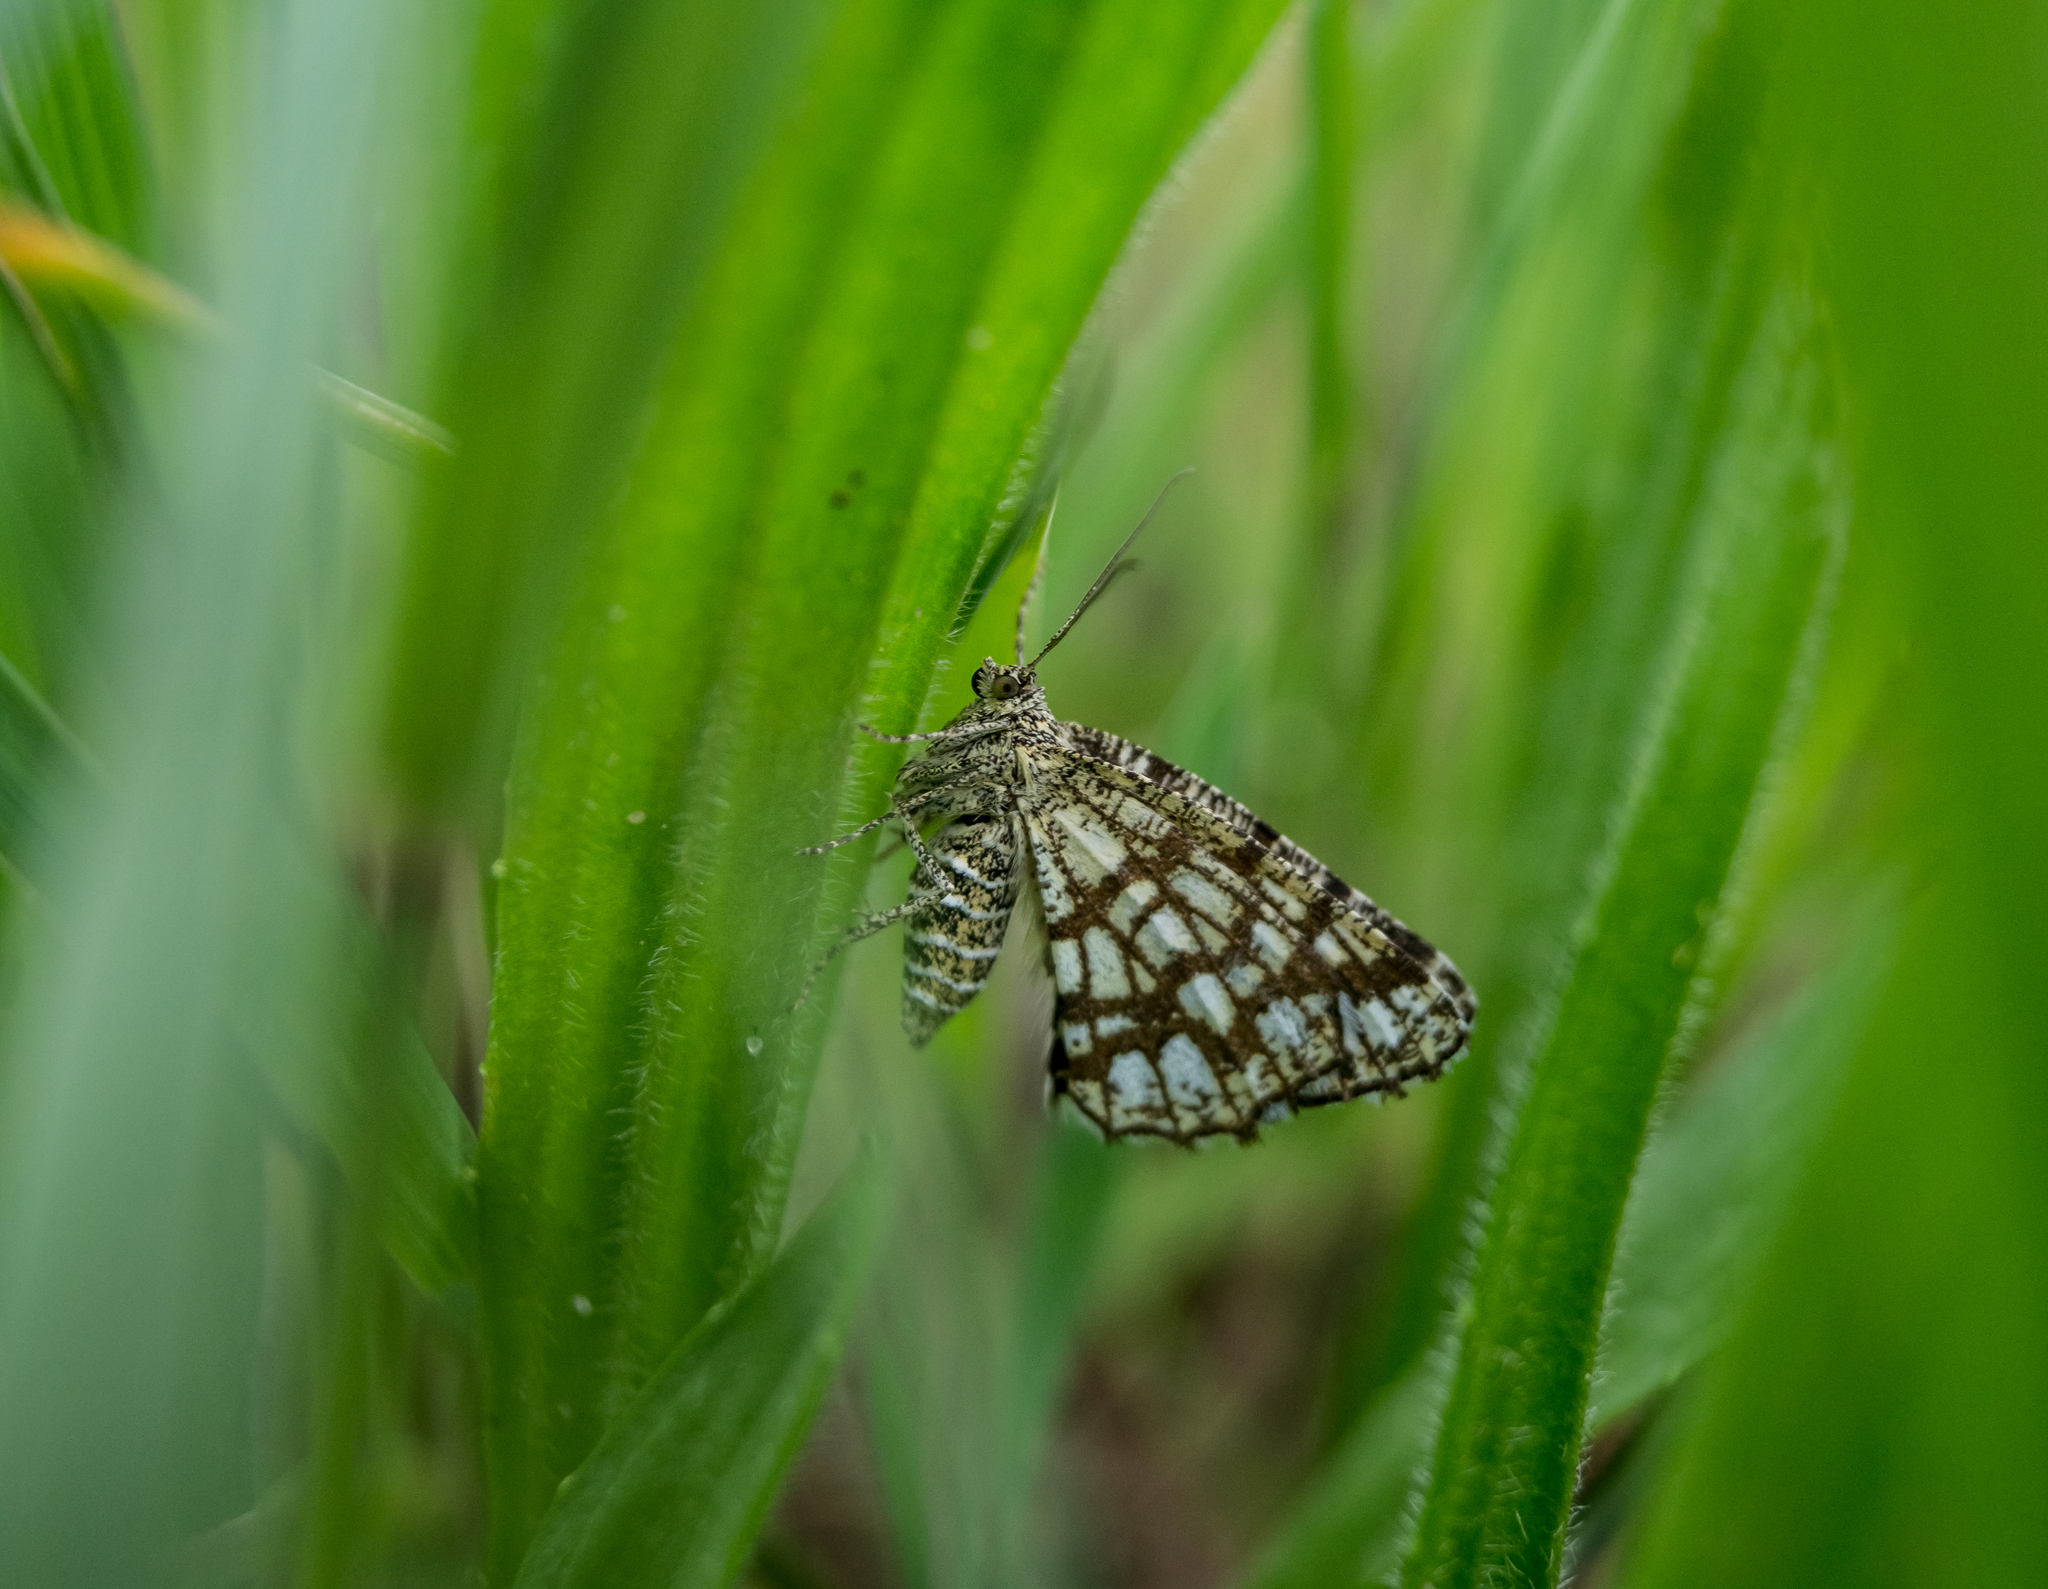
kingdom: Animalia
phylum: Arthropoda
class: Insecta
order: Lepidoptera
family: Geometridae
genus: Chiasmia
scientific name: Chiasmia clathrata
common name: Latticed heath
